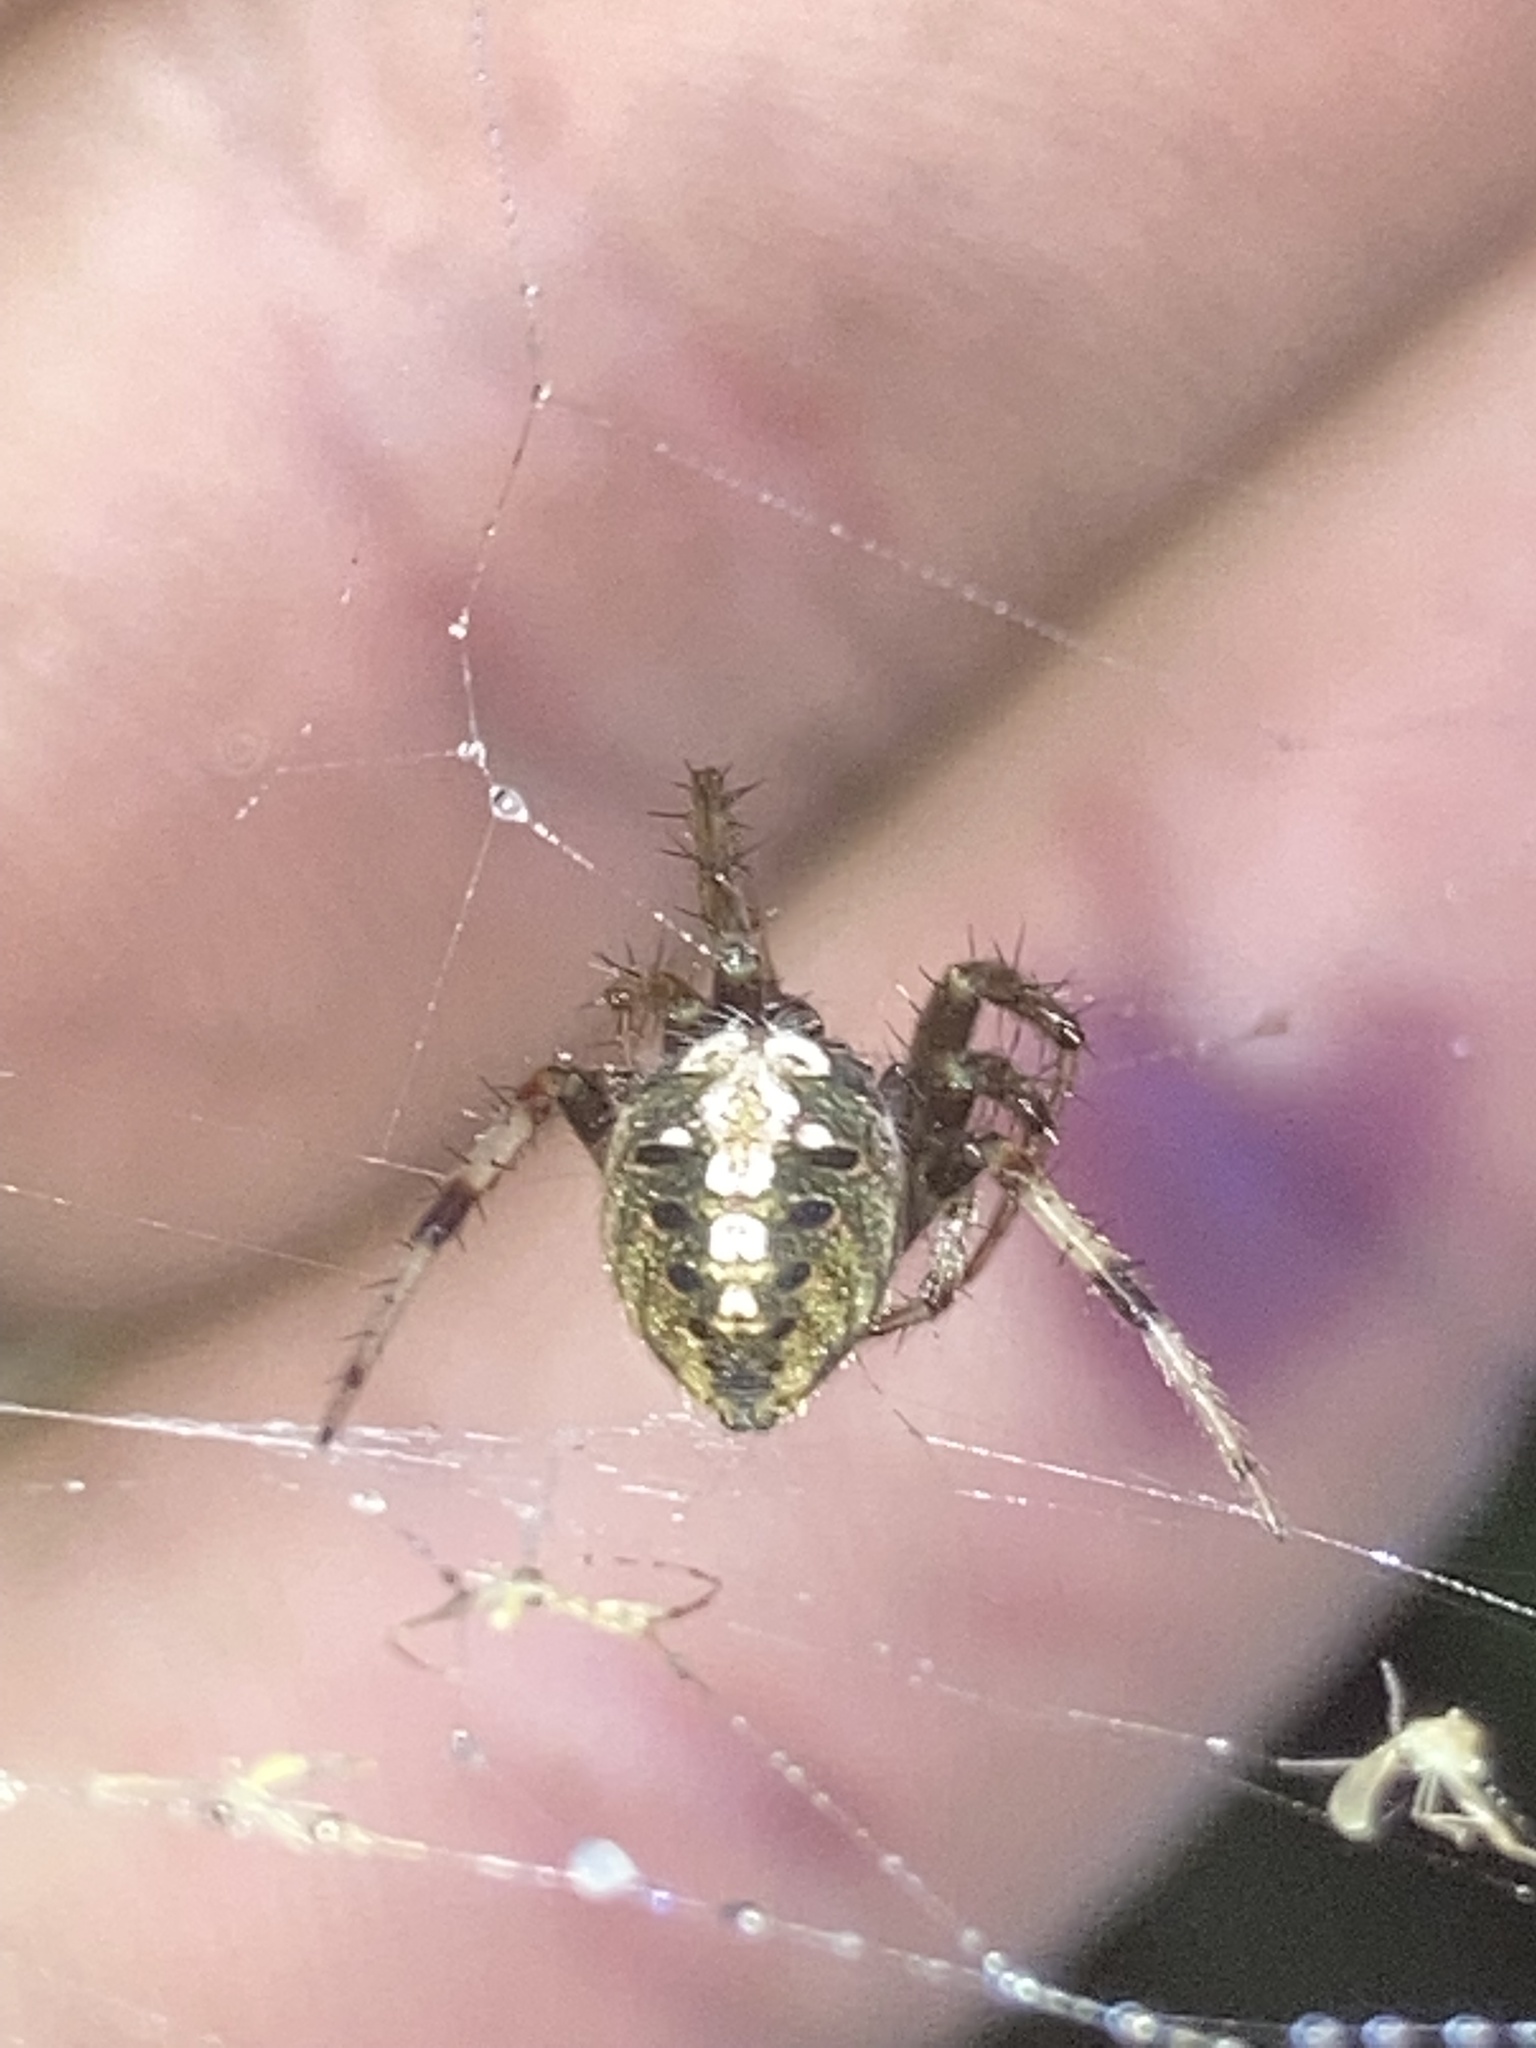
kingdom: Animalia
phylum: Arthropoda
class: Arachnida
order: Araneae
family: Araneidae
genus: Neoscona
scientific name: Neoscona arabesca
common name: Orb weavers
